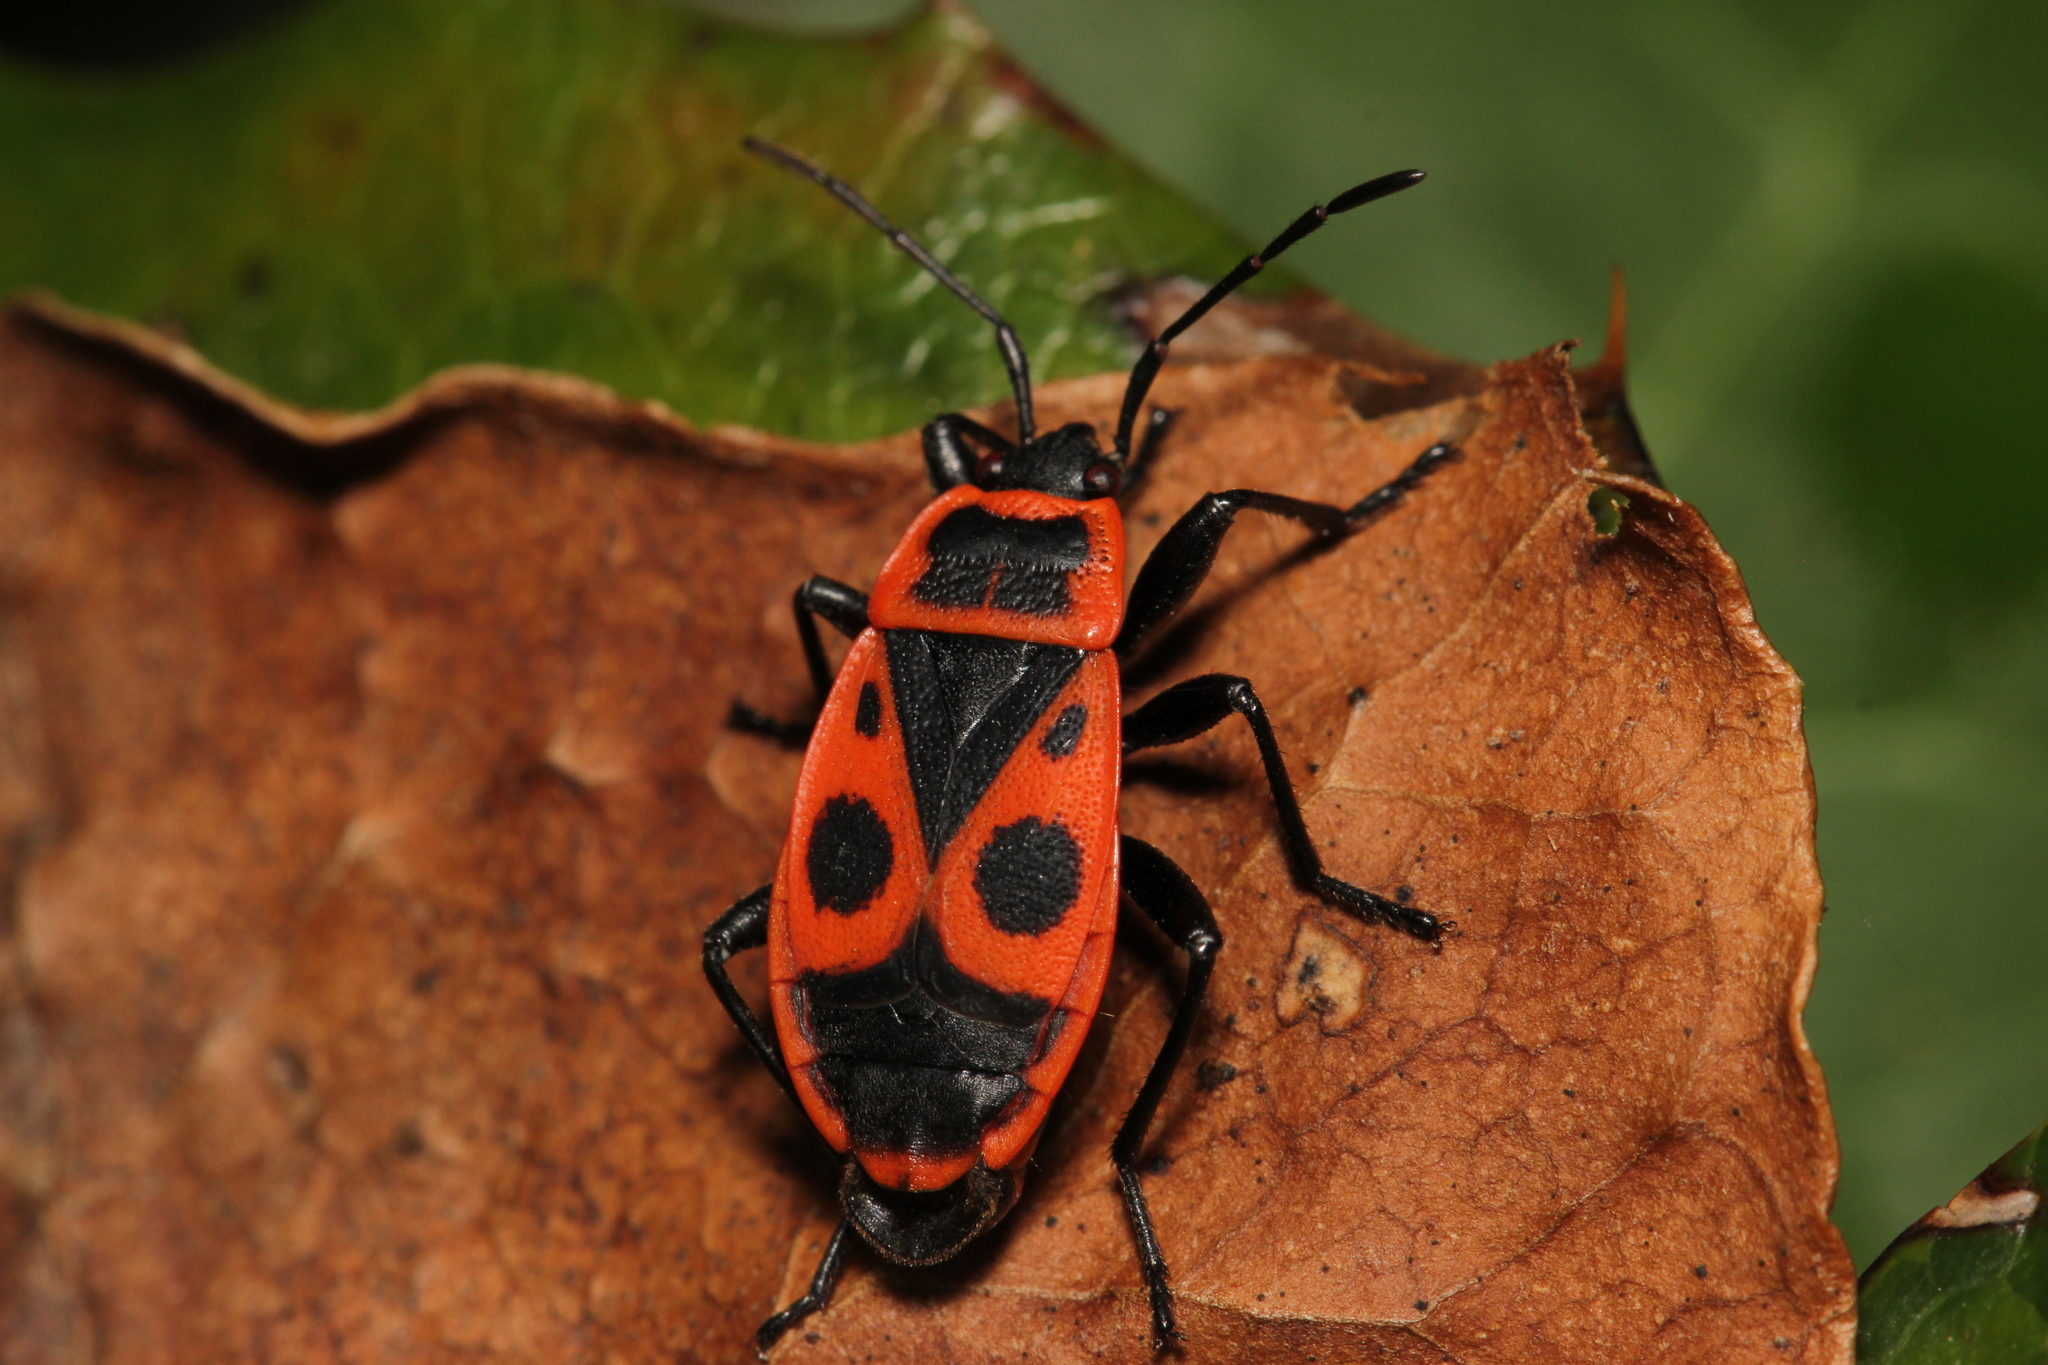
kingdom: Animalia
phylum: Arthropoda
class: Insecta
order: Hemiptera
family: Pyrrhocoridae
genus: Pyrrhocoris
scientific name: Pyrrhocoris apterus
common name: Firebug
